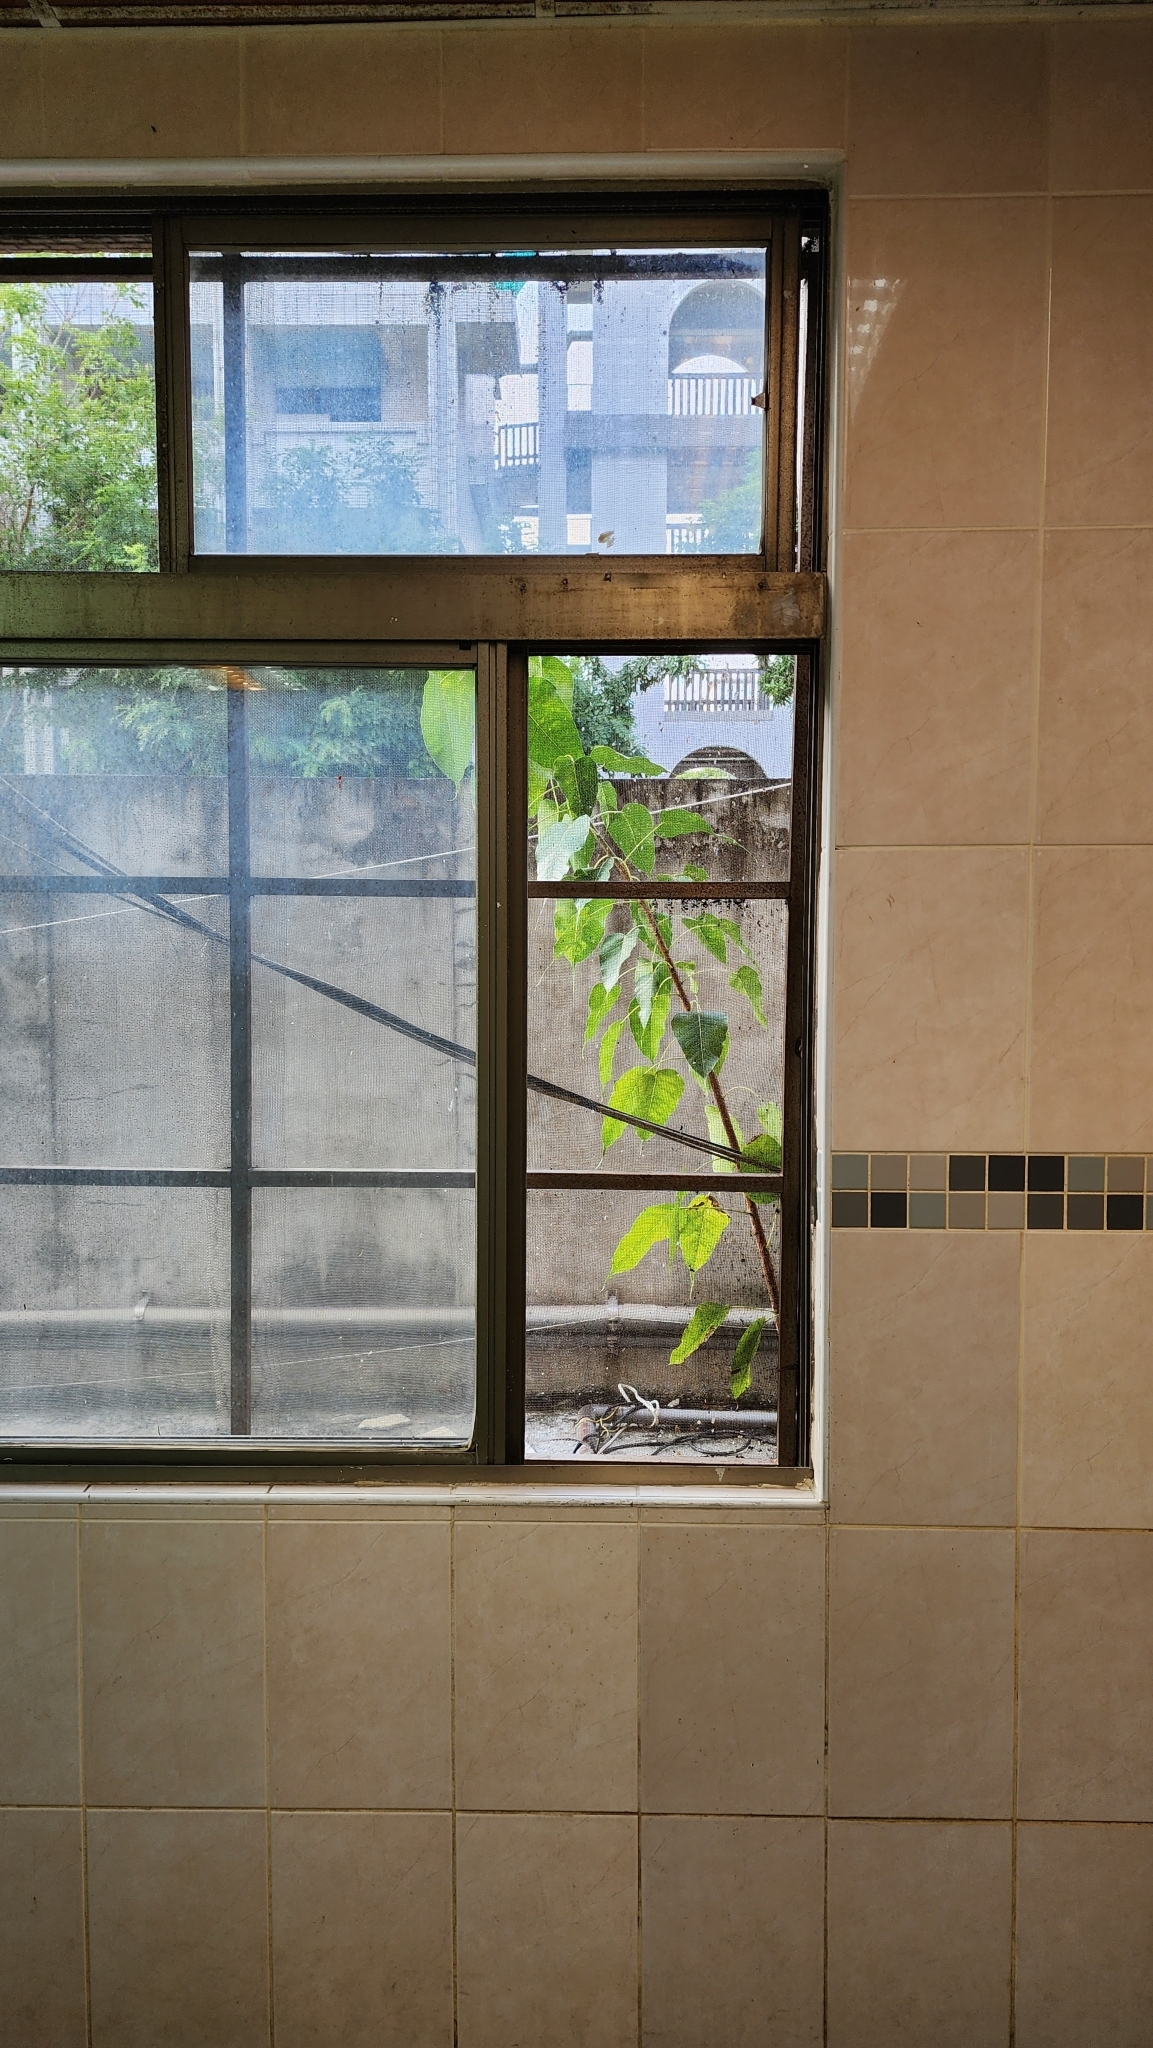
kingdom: Plantae
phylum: Tracheophyta
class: Magnoliopsida
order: Rosales
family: Moraceae
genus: Ficus
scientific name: Ficus religiosa
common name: Bodhi tree
